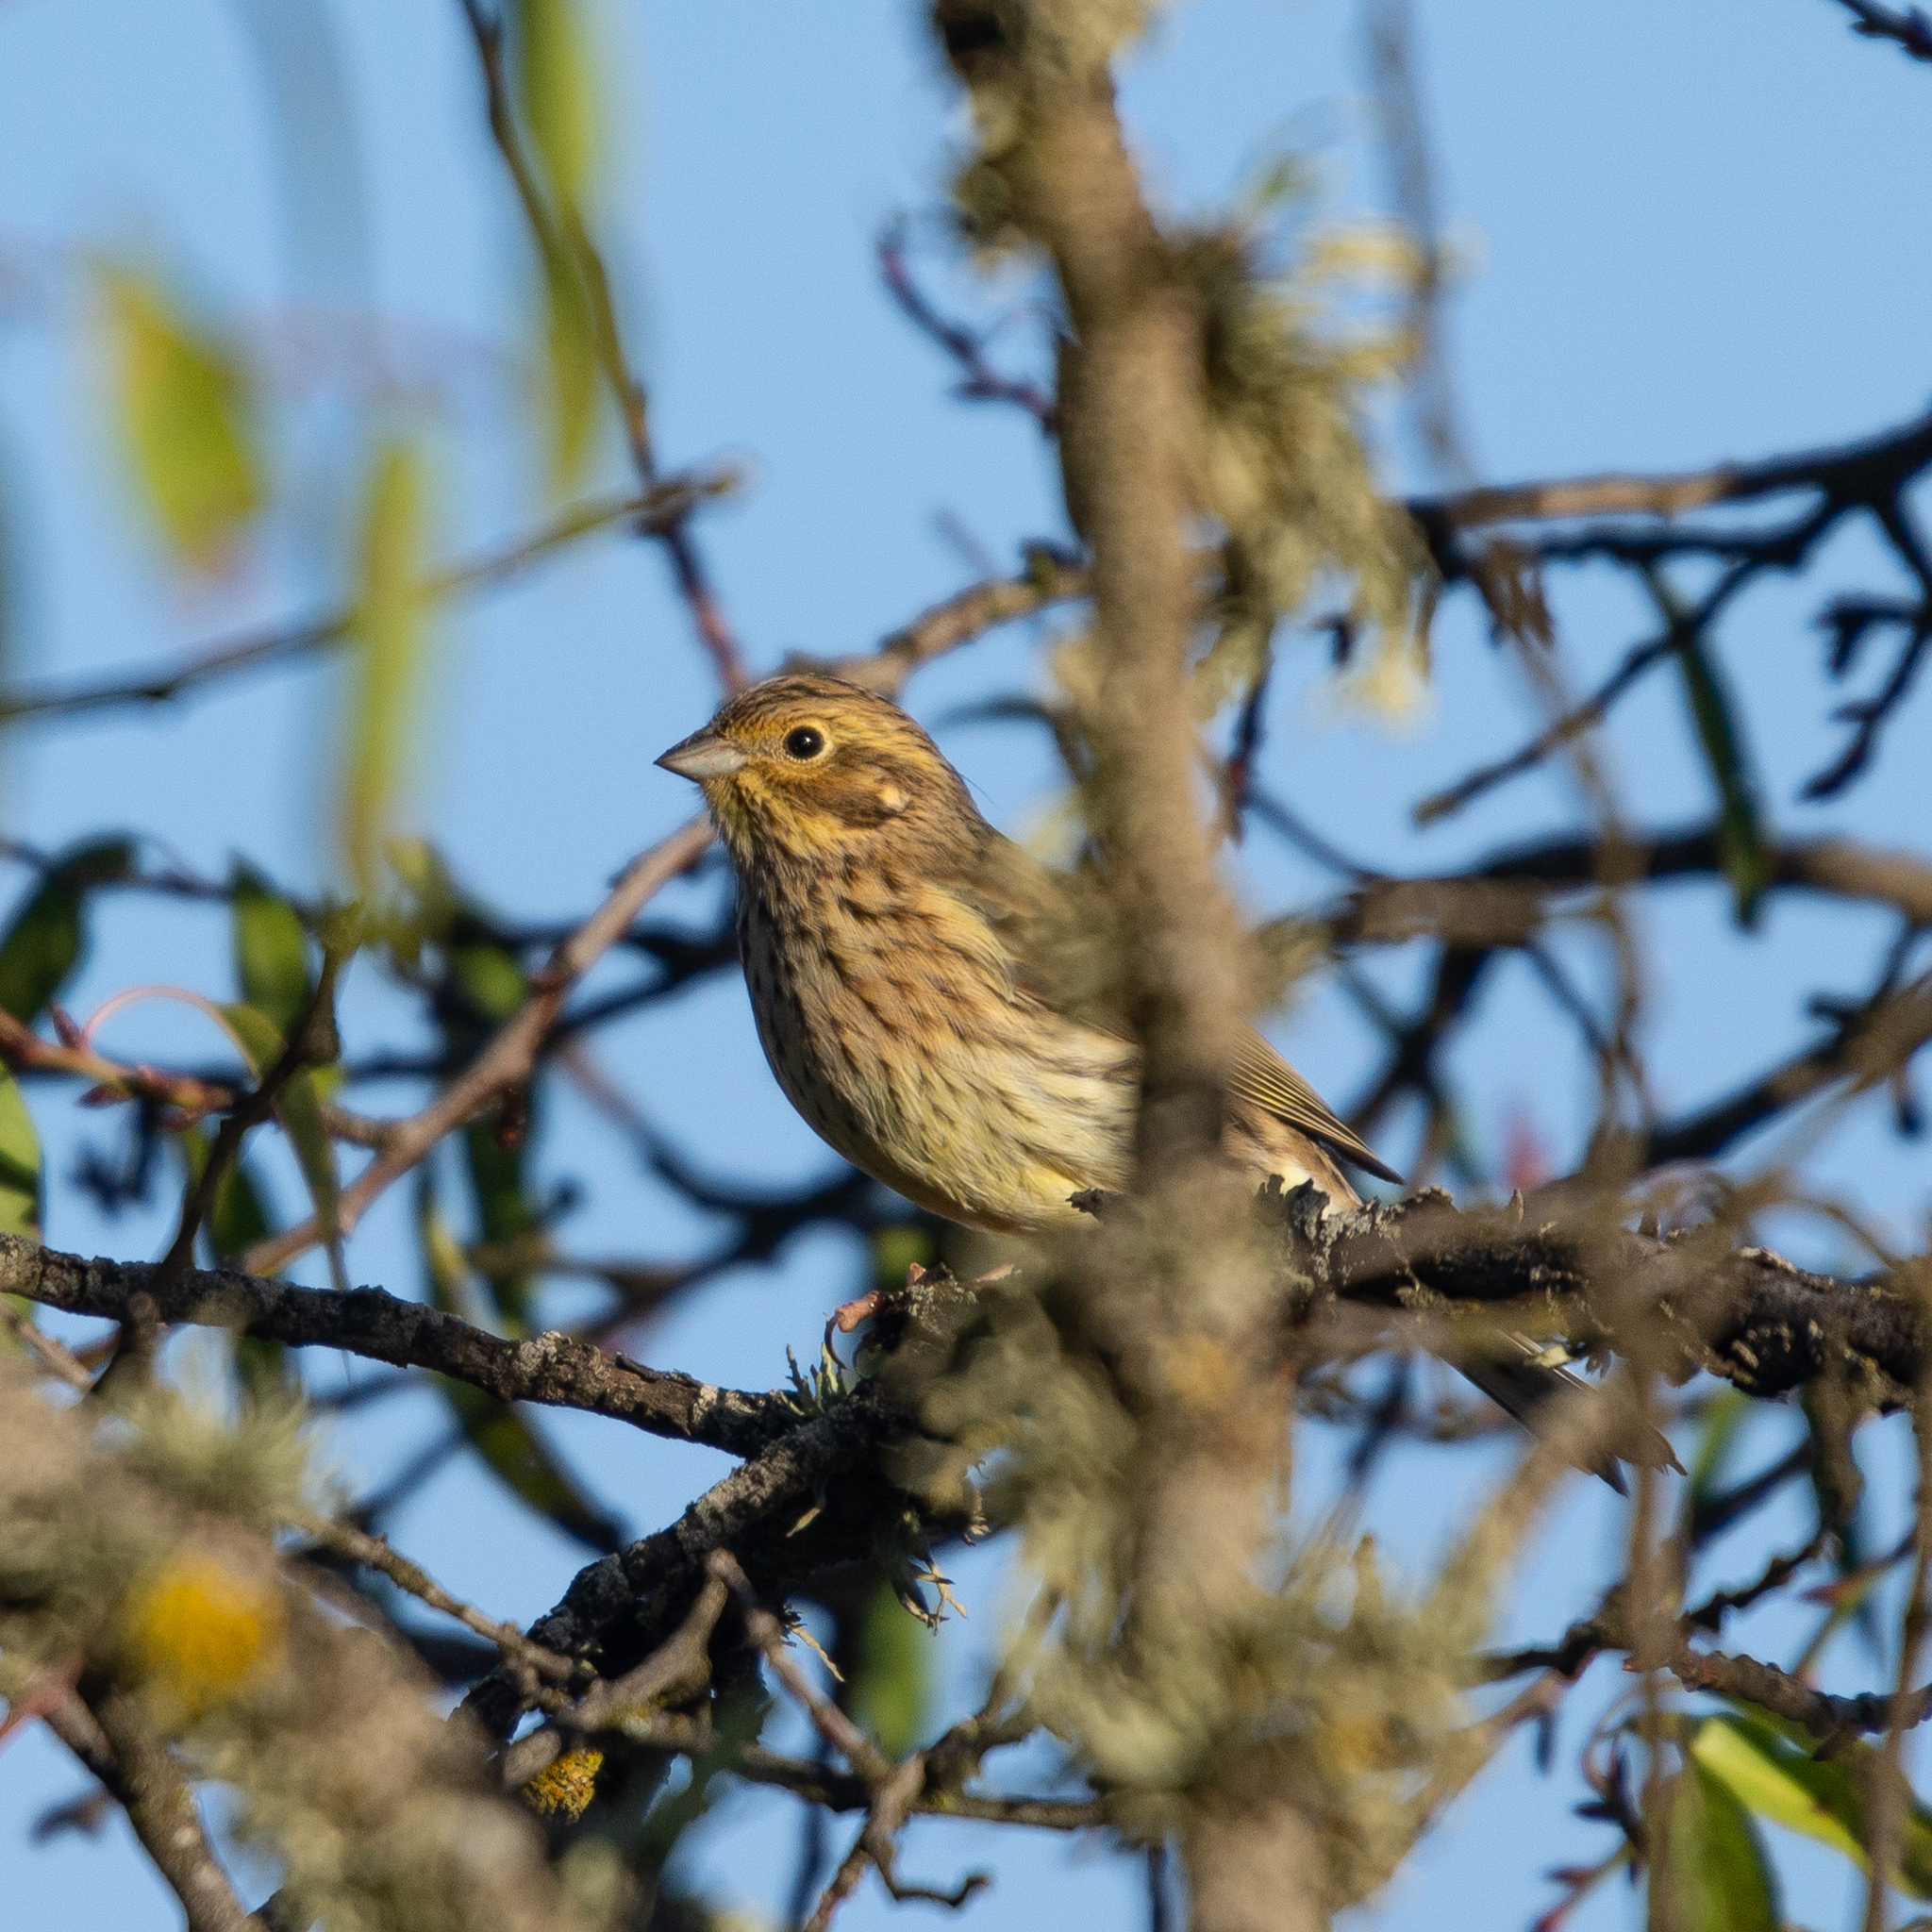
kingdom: Animalia
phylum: Chordata
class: Aves
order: Passeriformes
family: Emberizidae
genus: Emberiza
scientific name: Emberiza citrinella
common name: Yellowhammer
